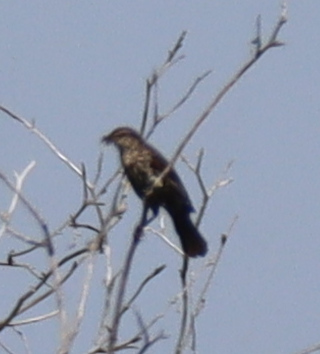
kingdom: Animalia
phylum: Chordata
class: Aves
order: Passeriformes
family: Icteridae
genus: Agelaius
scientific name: Agelaius phoeniceus
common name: Red-winged blackbird
